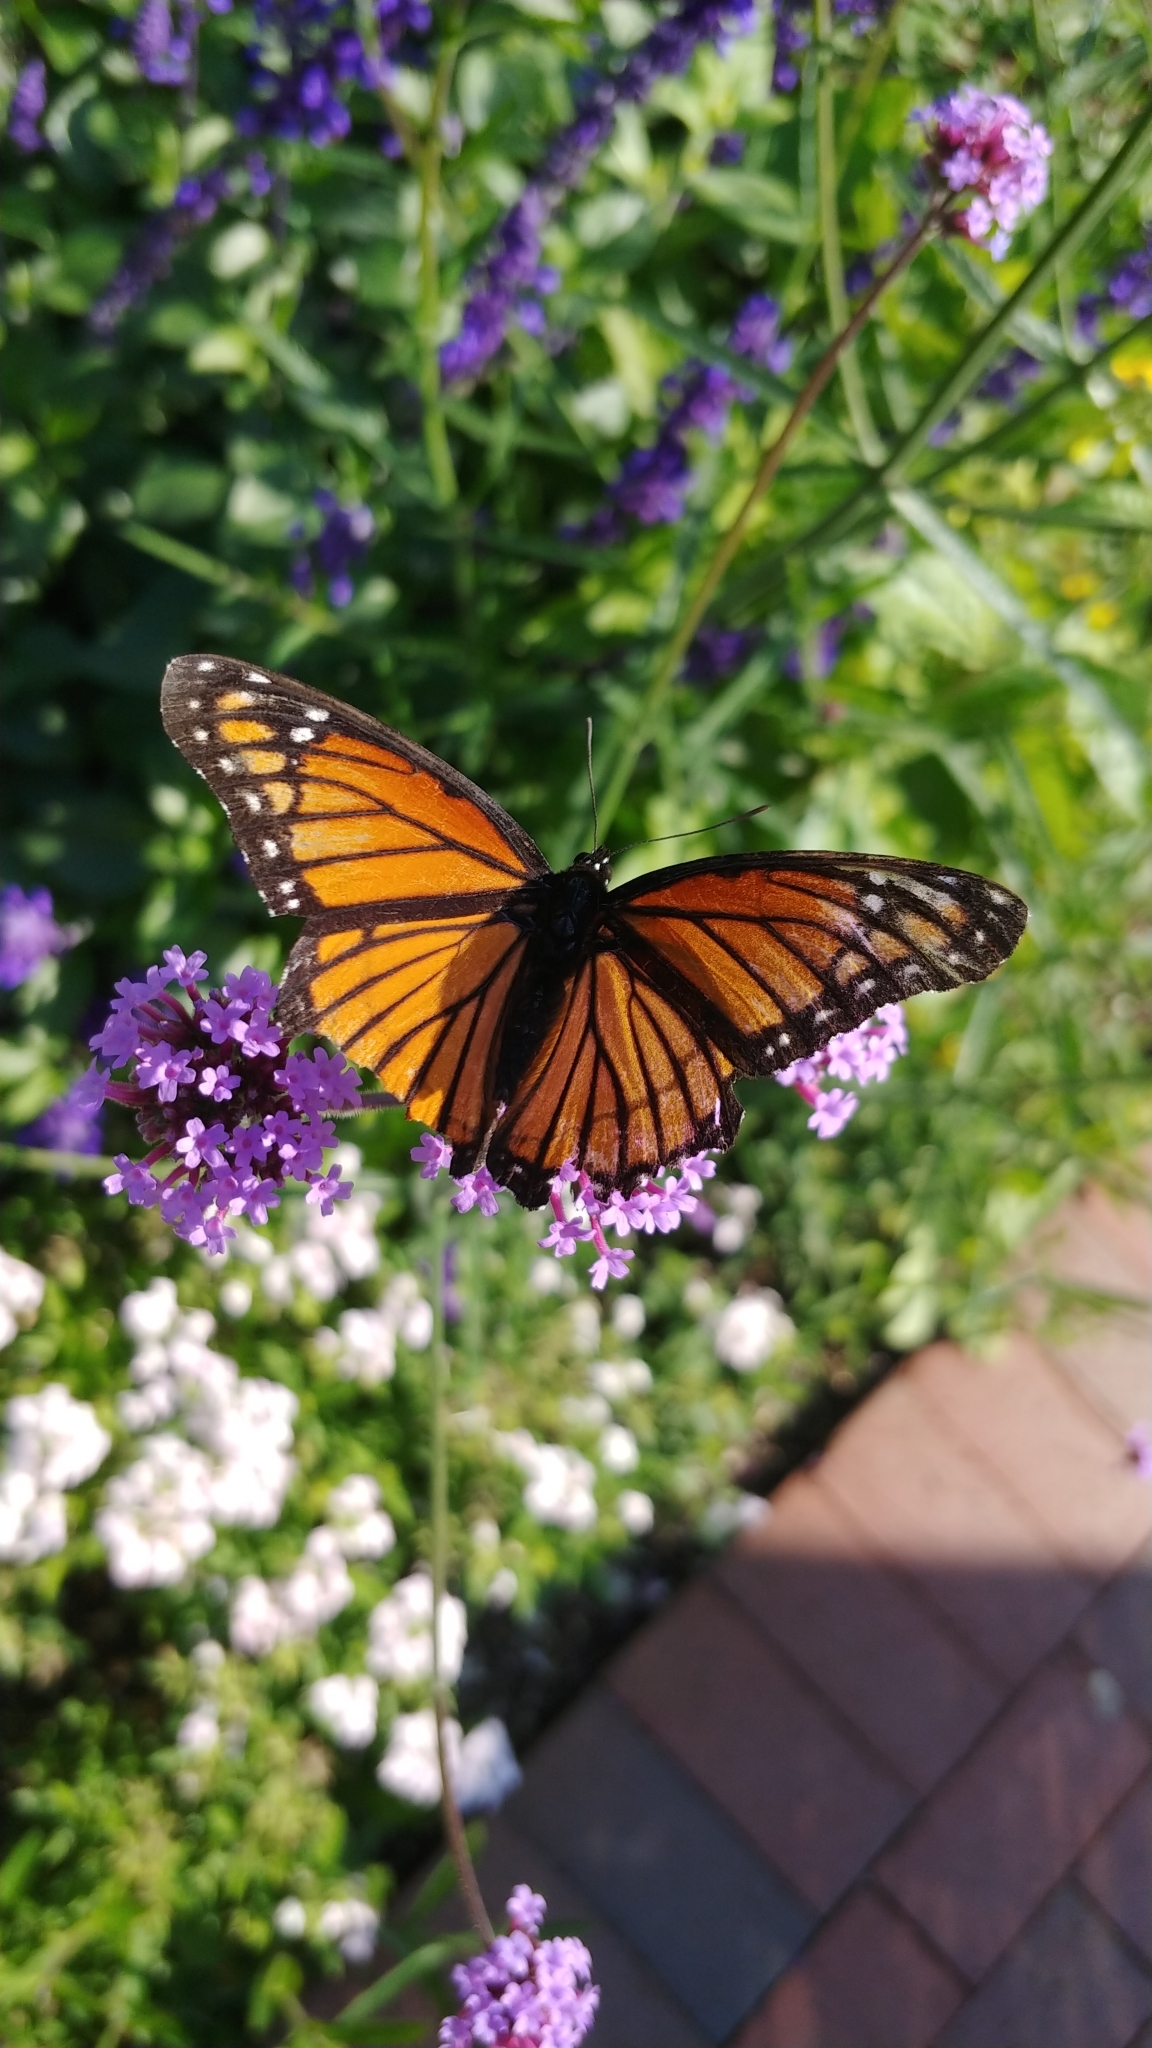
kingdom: Animalia
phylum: Arthropoda
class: Insecta
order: Lepidoptera
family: Nymphalidae
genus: Limenitis
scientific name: Limenitis archippus
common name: Viceroy
